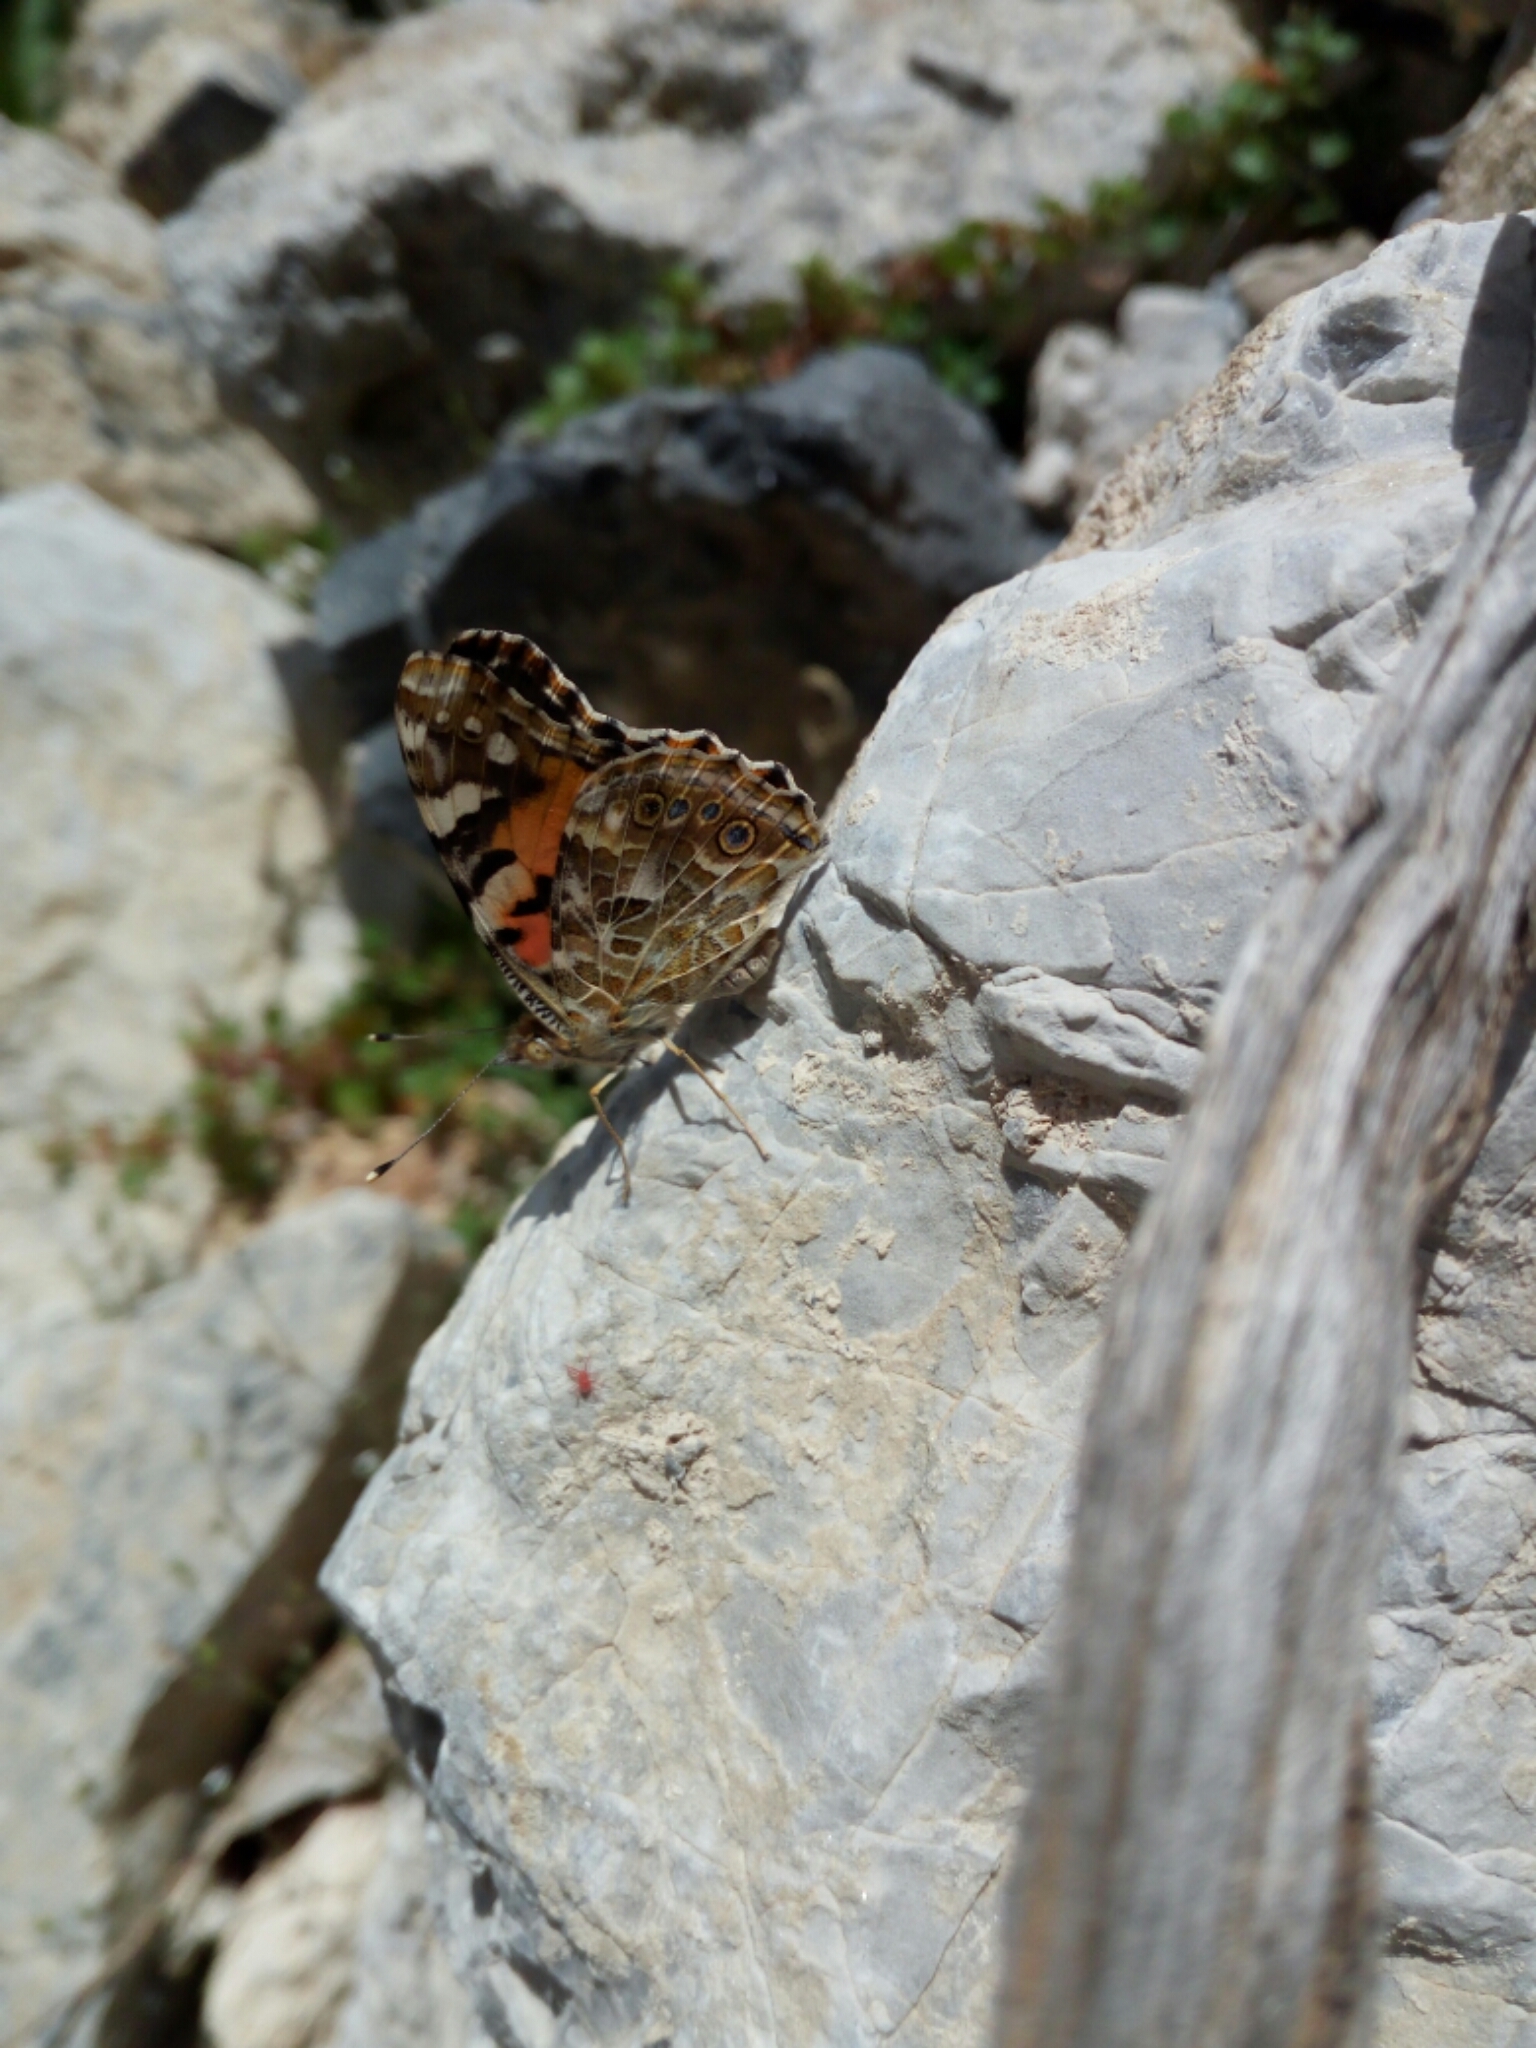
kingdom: Animalia
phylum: Arthropoda
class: Insecta
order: Lepidoptera
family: Nymphalidae
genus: Vanessa
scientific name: Vanessa cardui
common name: Painted lady
